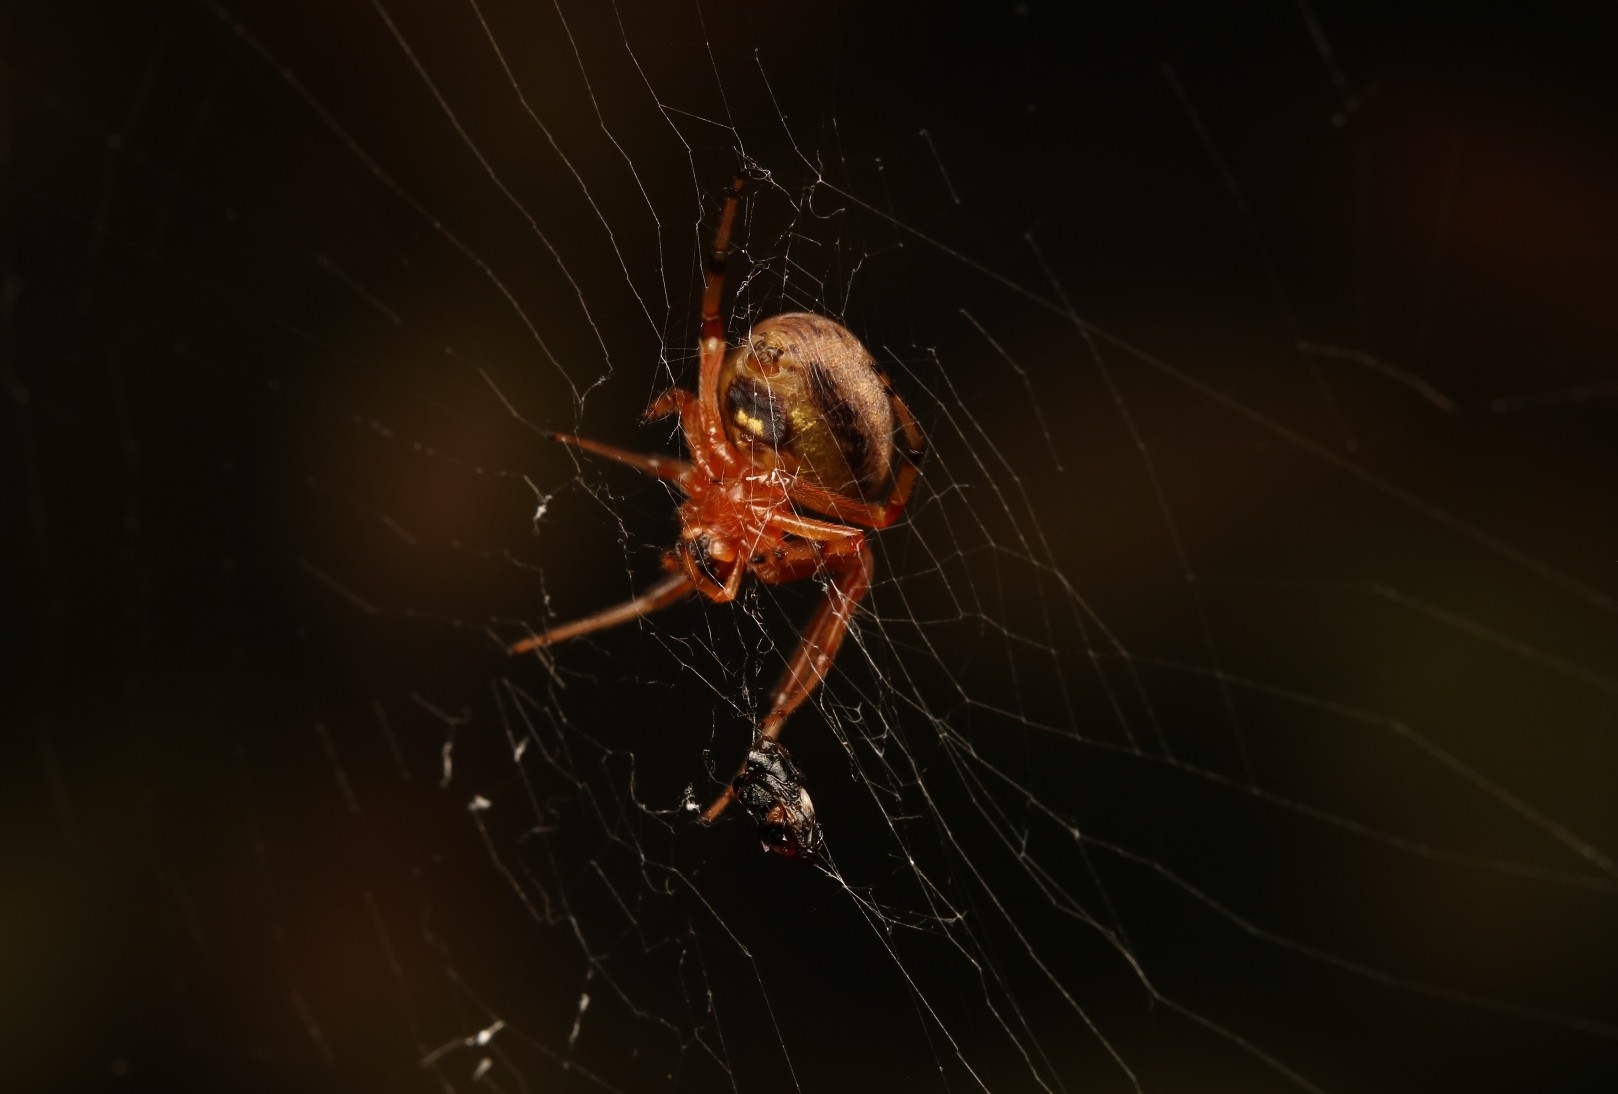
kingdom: Animalia
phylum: Arthropoda
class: Arachnida
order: Araneae
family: Araneidae
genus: Araneus
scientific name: Araneus thaddeus
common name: Lattice orbweaver
